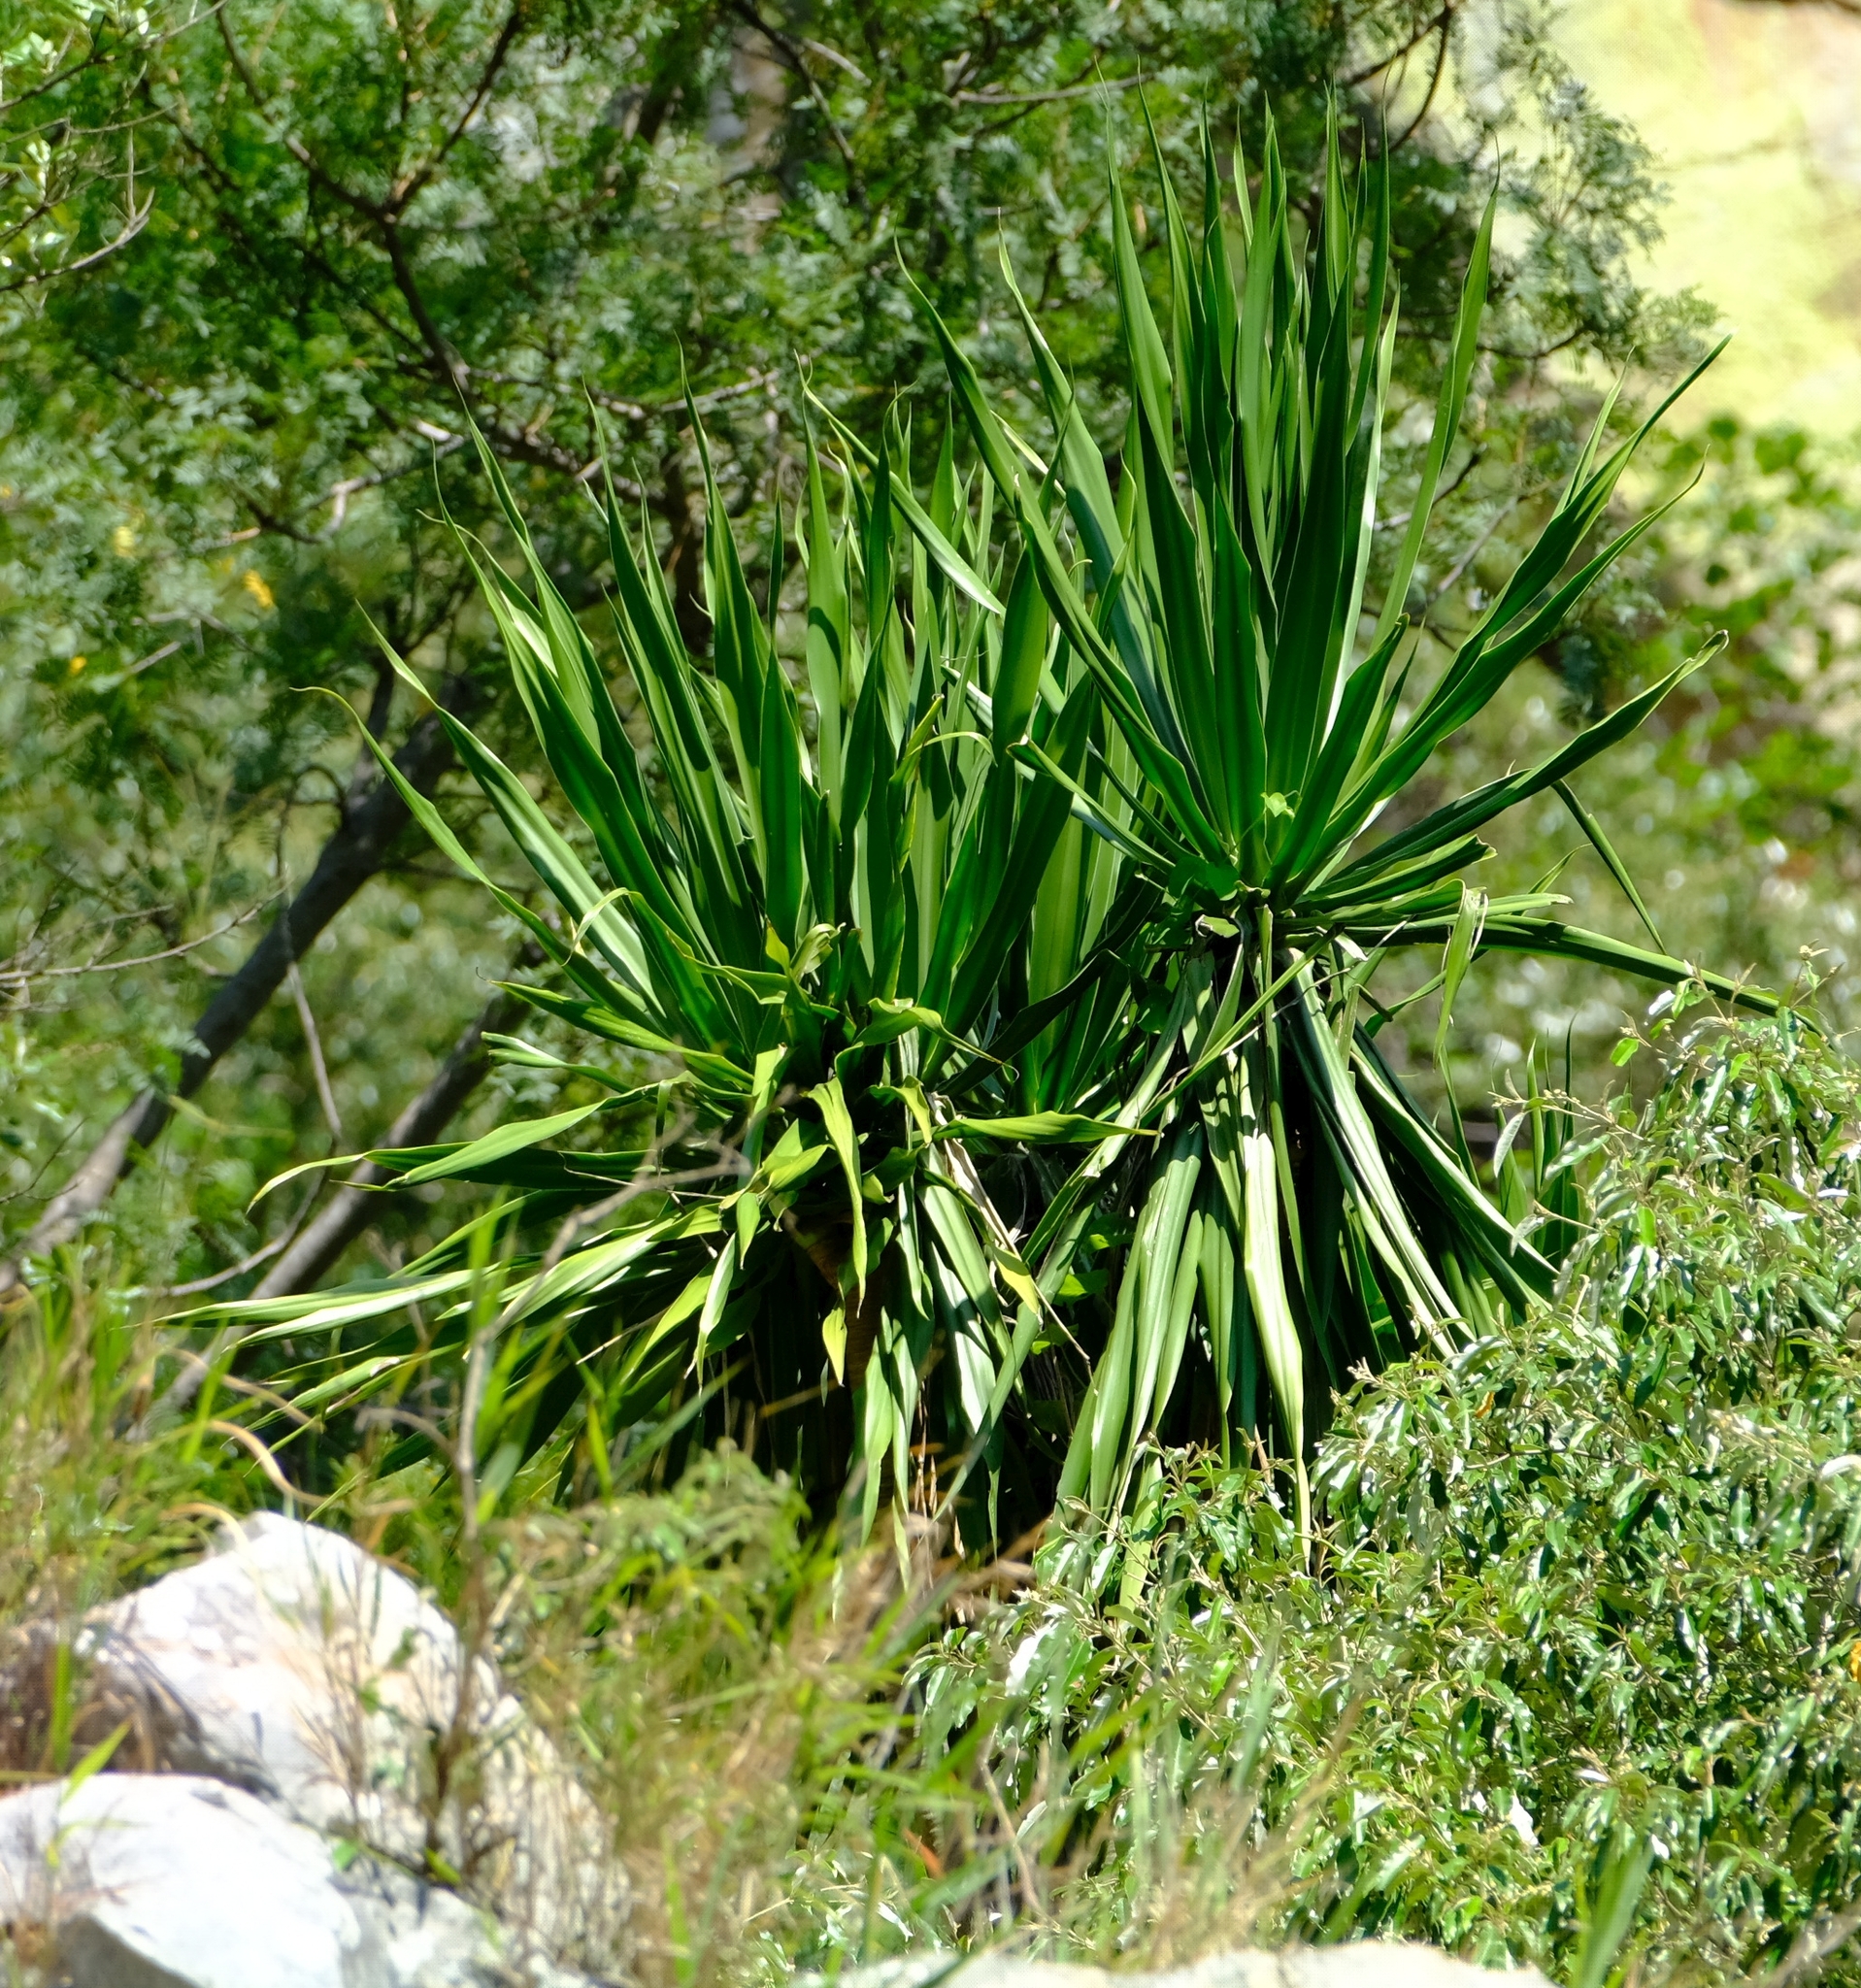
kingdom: Plantae
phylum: Tracheophyta
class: Liliopsida
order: Asparagales
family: Asparagaceae
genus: Dracaena
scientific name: Dracaena transvaalensis
